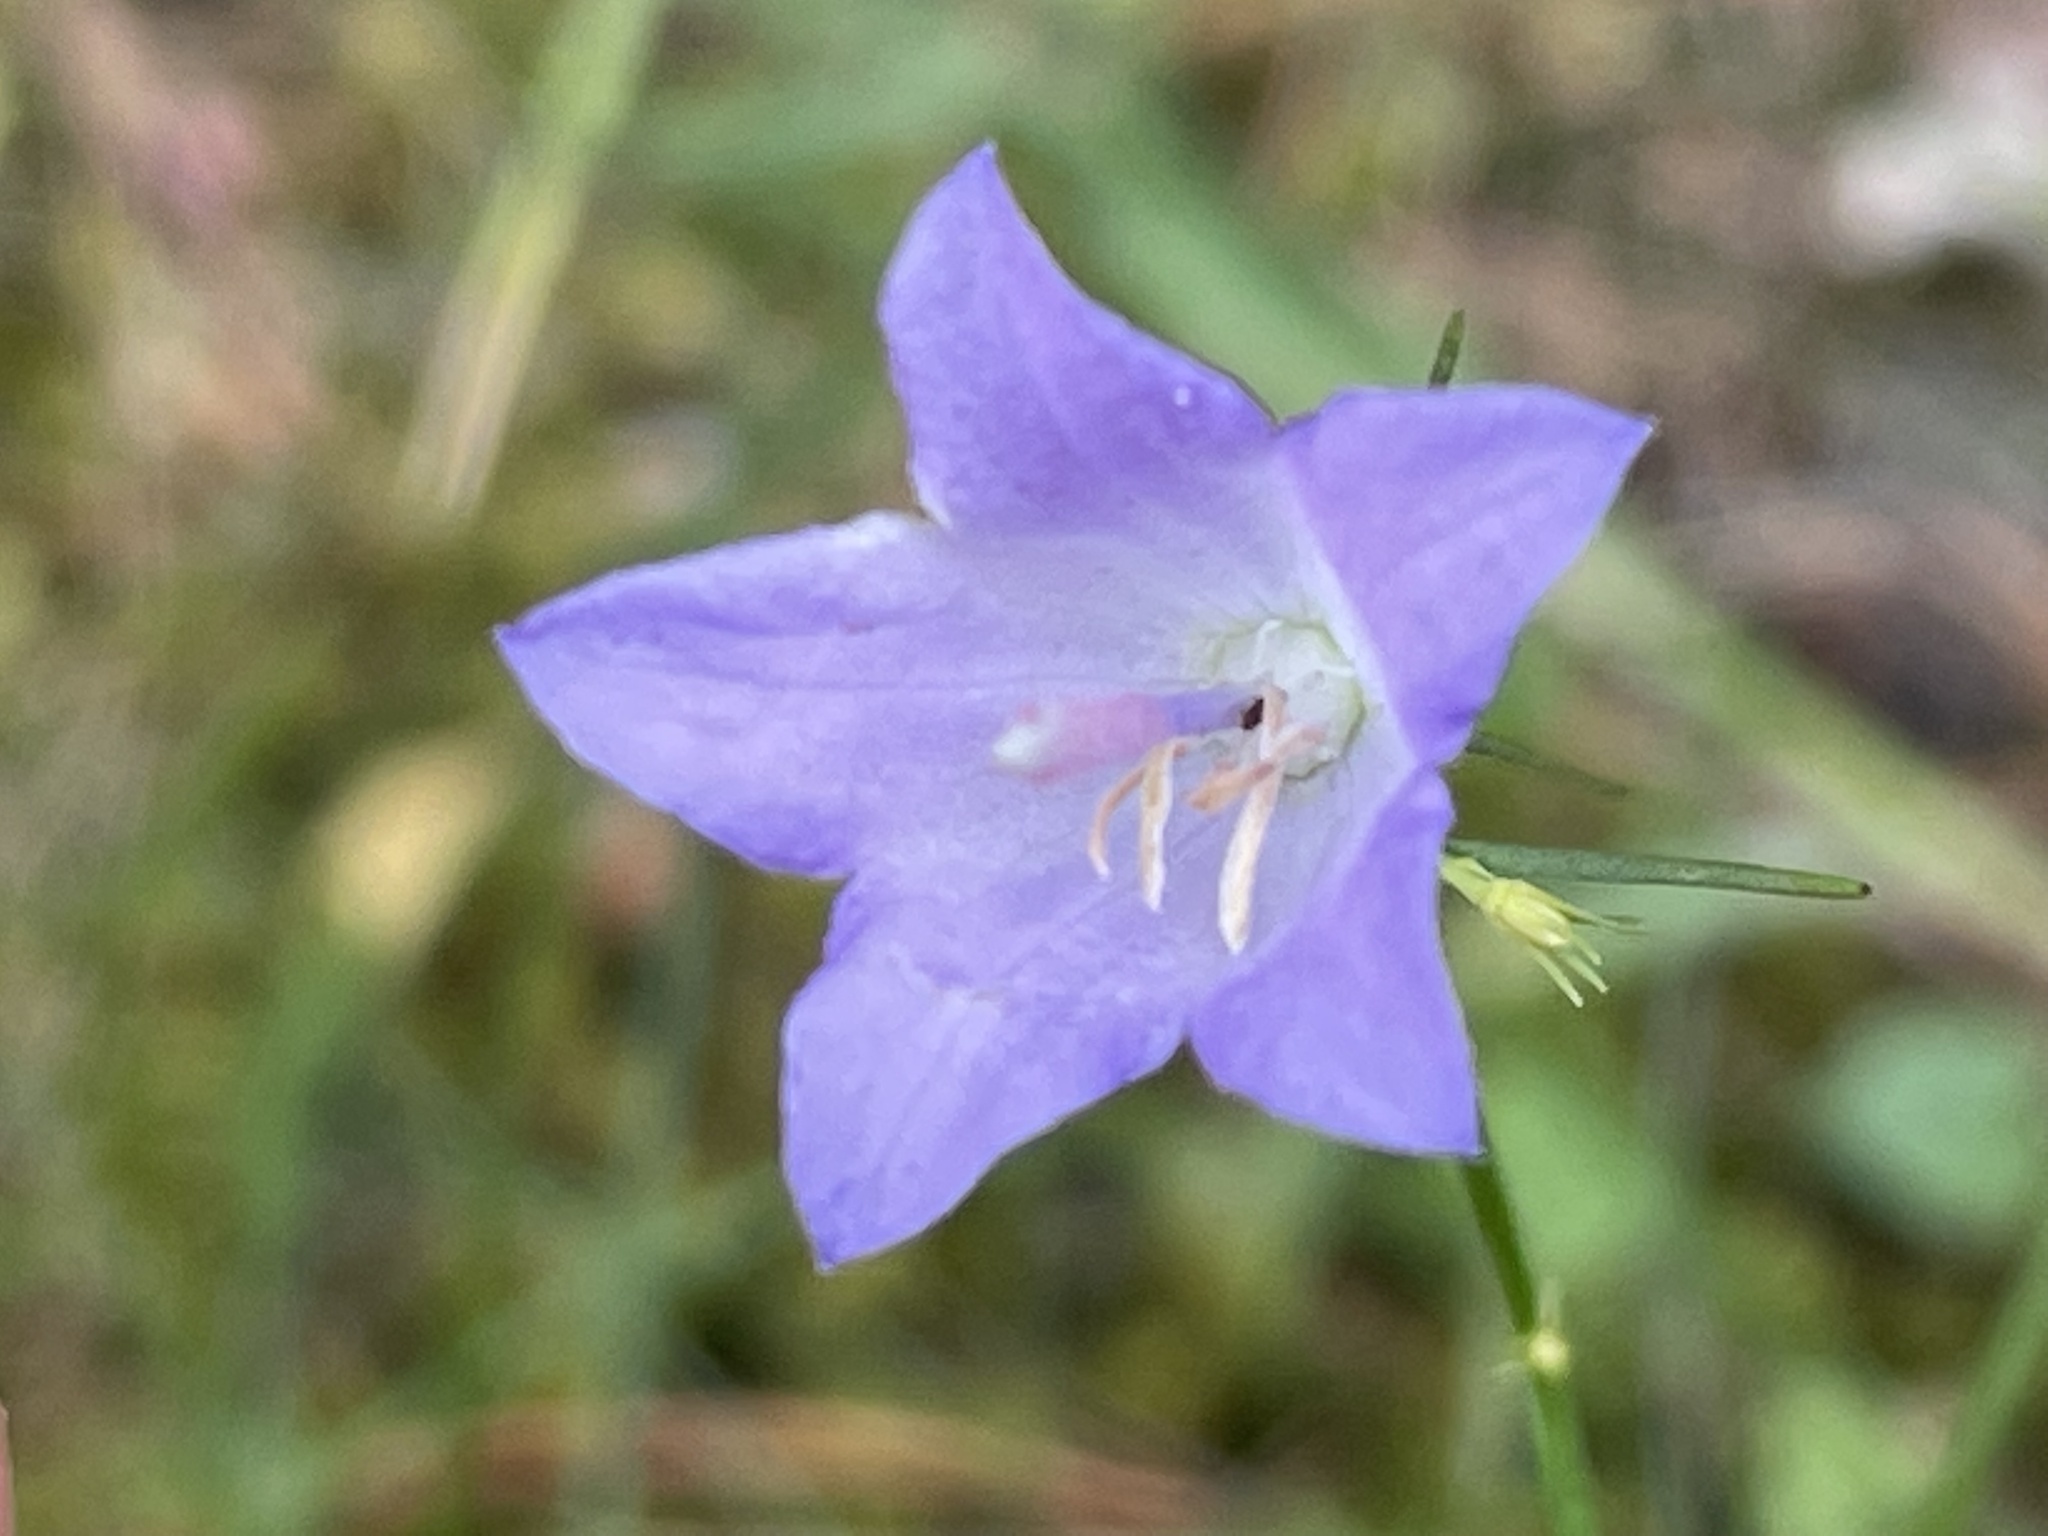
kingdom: Plantae
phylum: Tracheophyta
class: Magnoliopsida
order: Asterales
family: Campanulaceae
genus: Campanula
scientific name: Campanula petiolata
